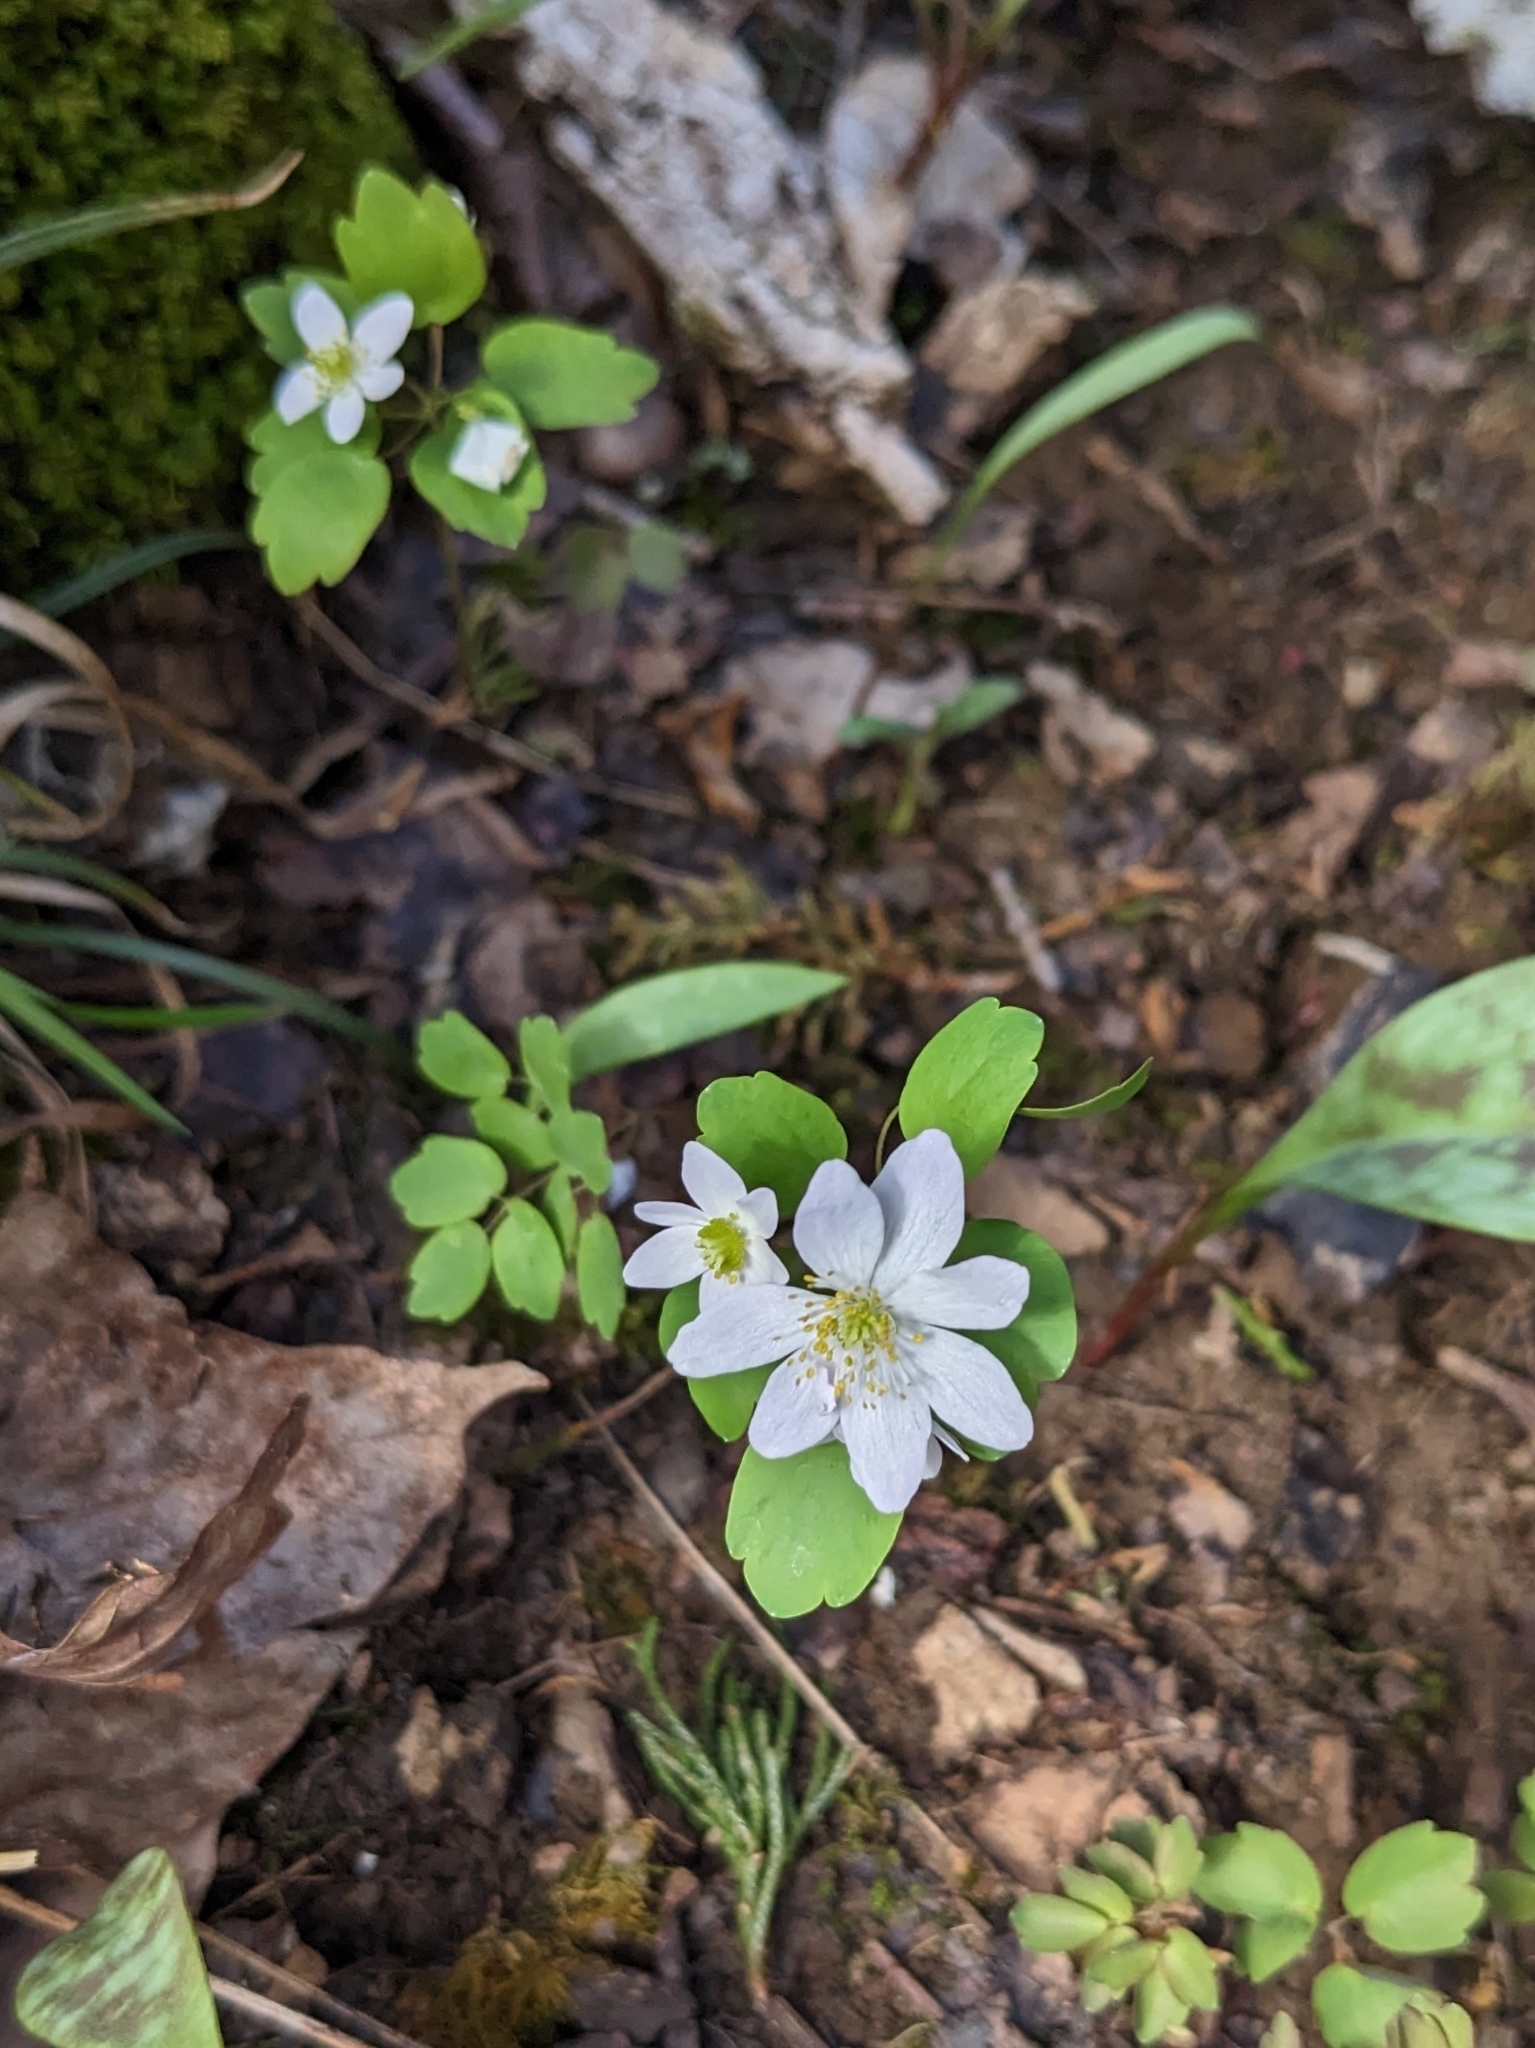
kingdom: Plantae
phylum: Tracheophyta
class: Magnoliopsida
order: Ranunculales
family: Ranunculaceae
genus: Thalictrum
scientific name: Thalictrum thalictroides
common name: Rue-anemone
